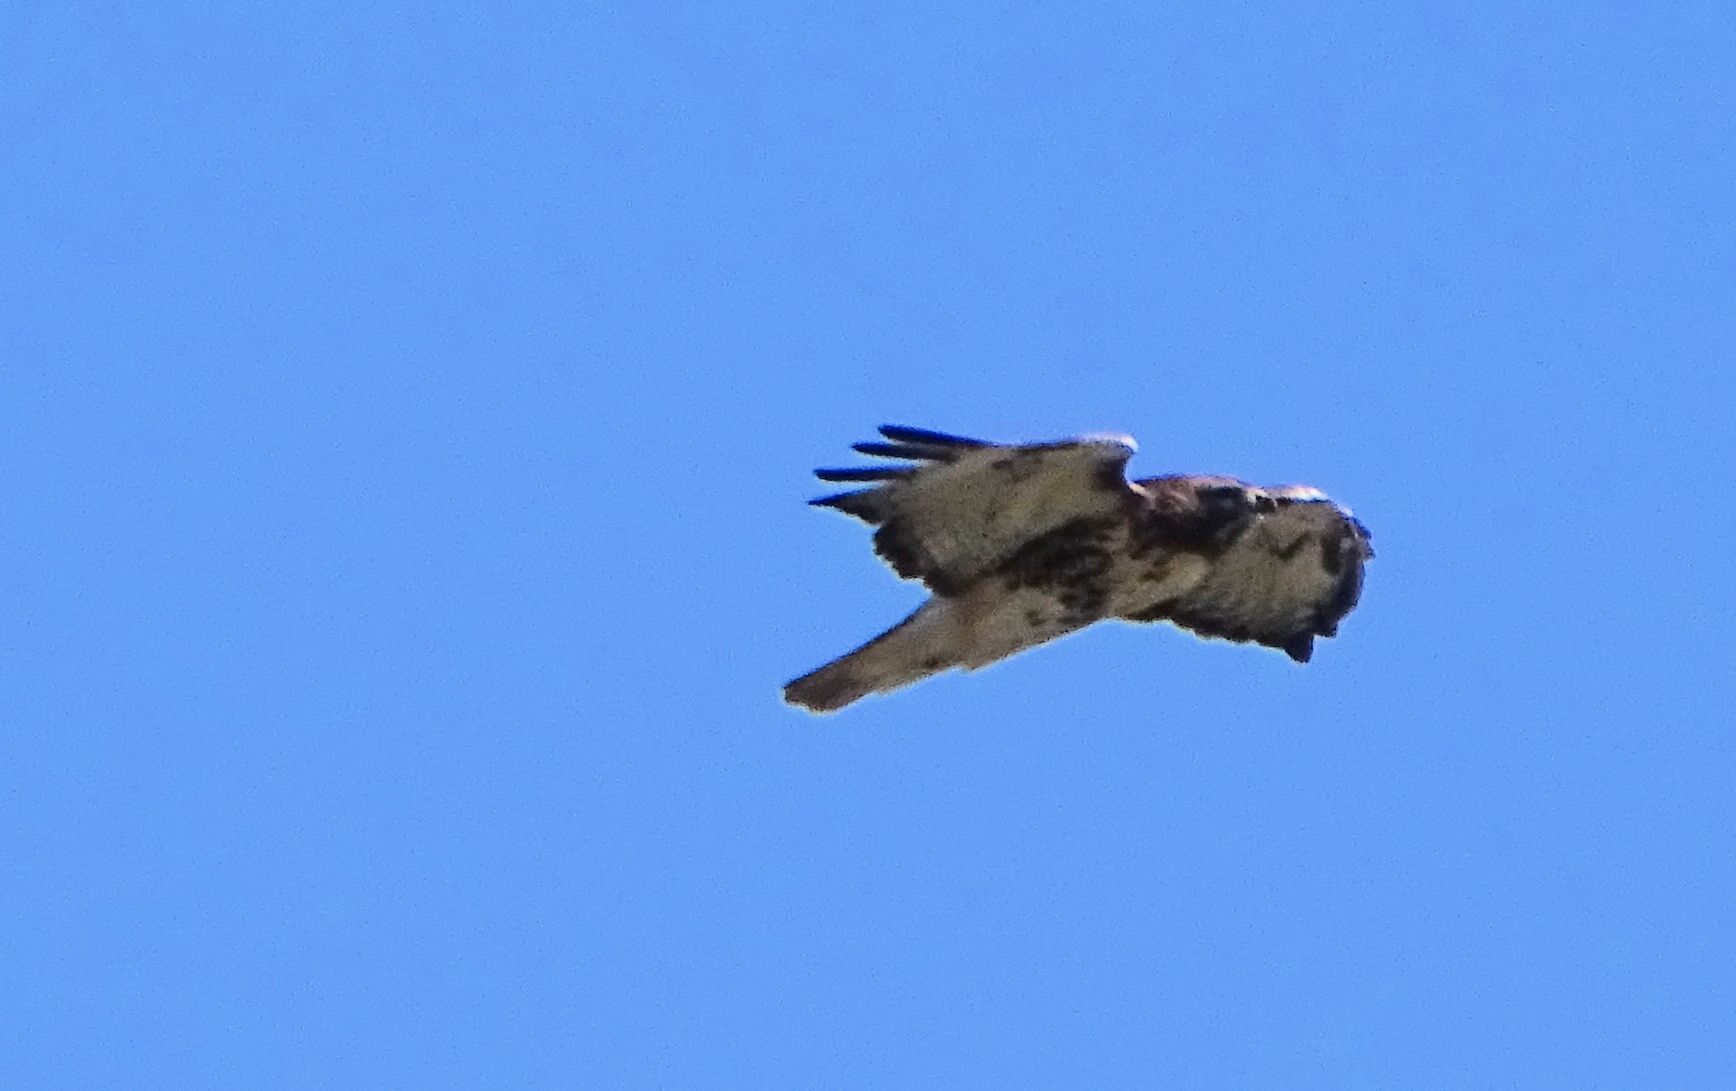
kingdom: Animalia
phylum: Chordata
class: Aves
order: Accipitriformes
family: Accipitridae
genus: Buteo
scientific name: Buteo jamaicensis
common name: Red-tailed hawk
